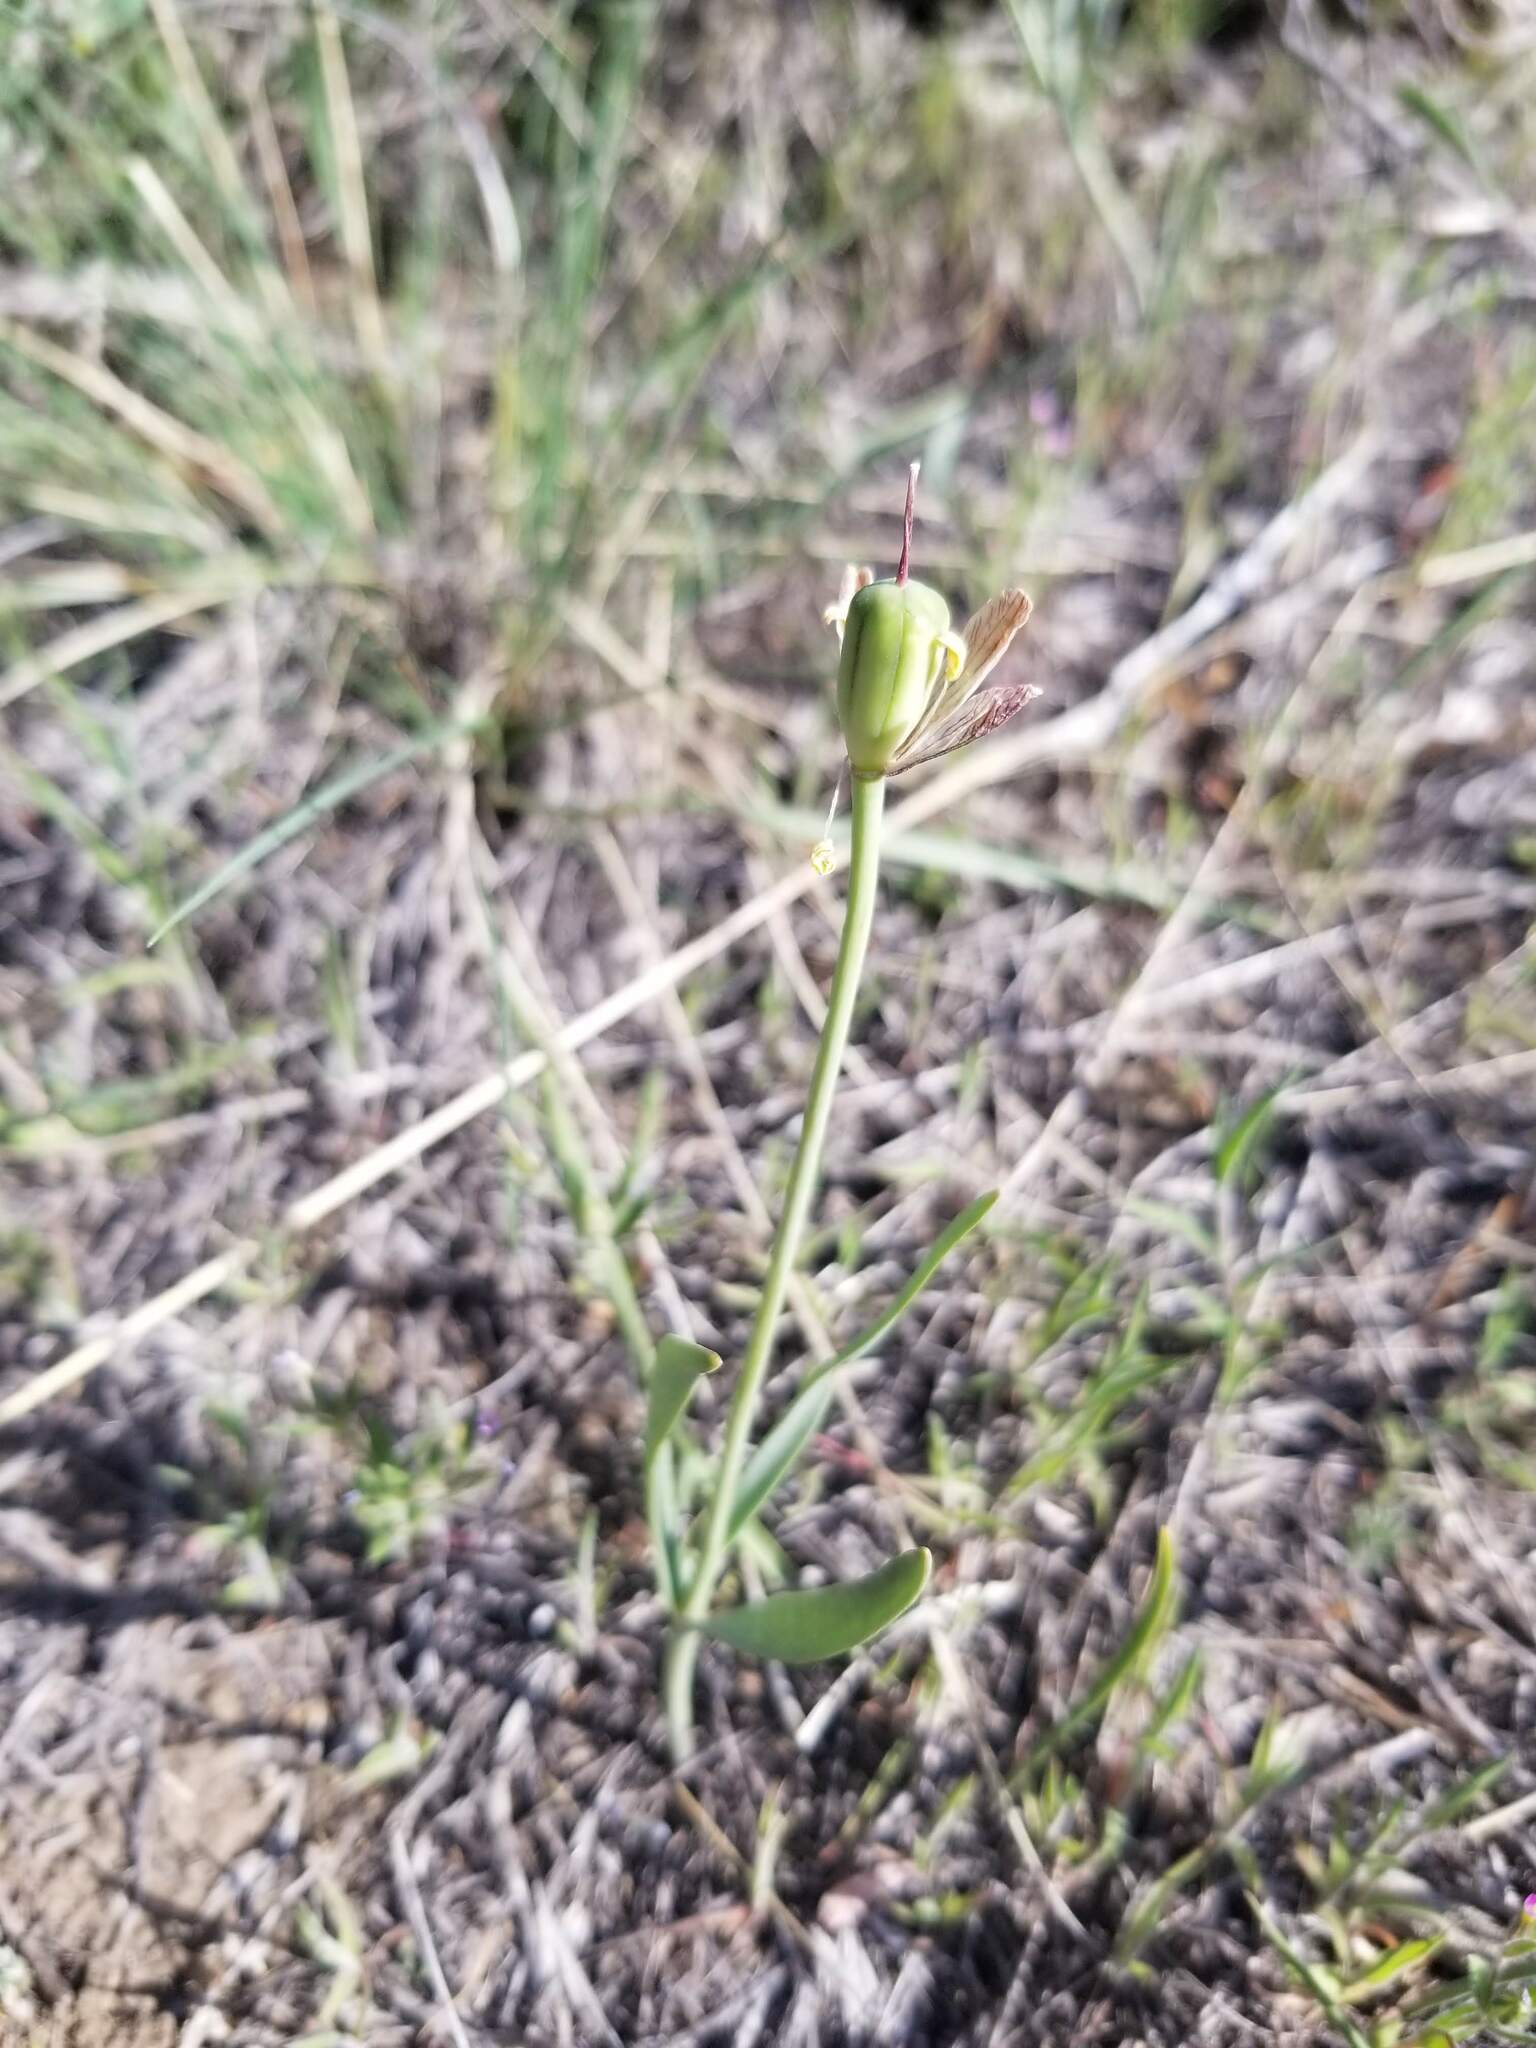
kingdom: Plantae
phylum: Tracheophyta
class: Liliopsida
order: Liliales
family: Liliaceae
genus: Fritillaria
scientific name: Fritillaria pudica
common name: Yellow fritillary
